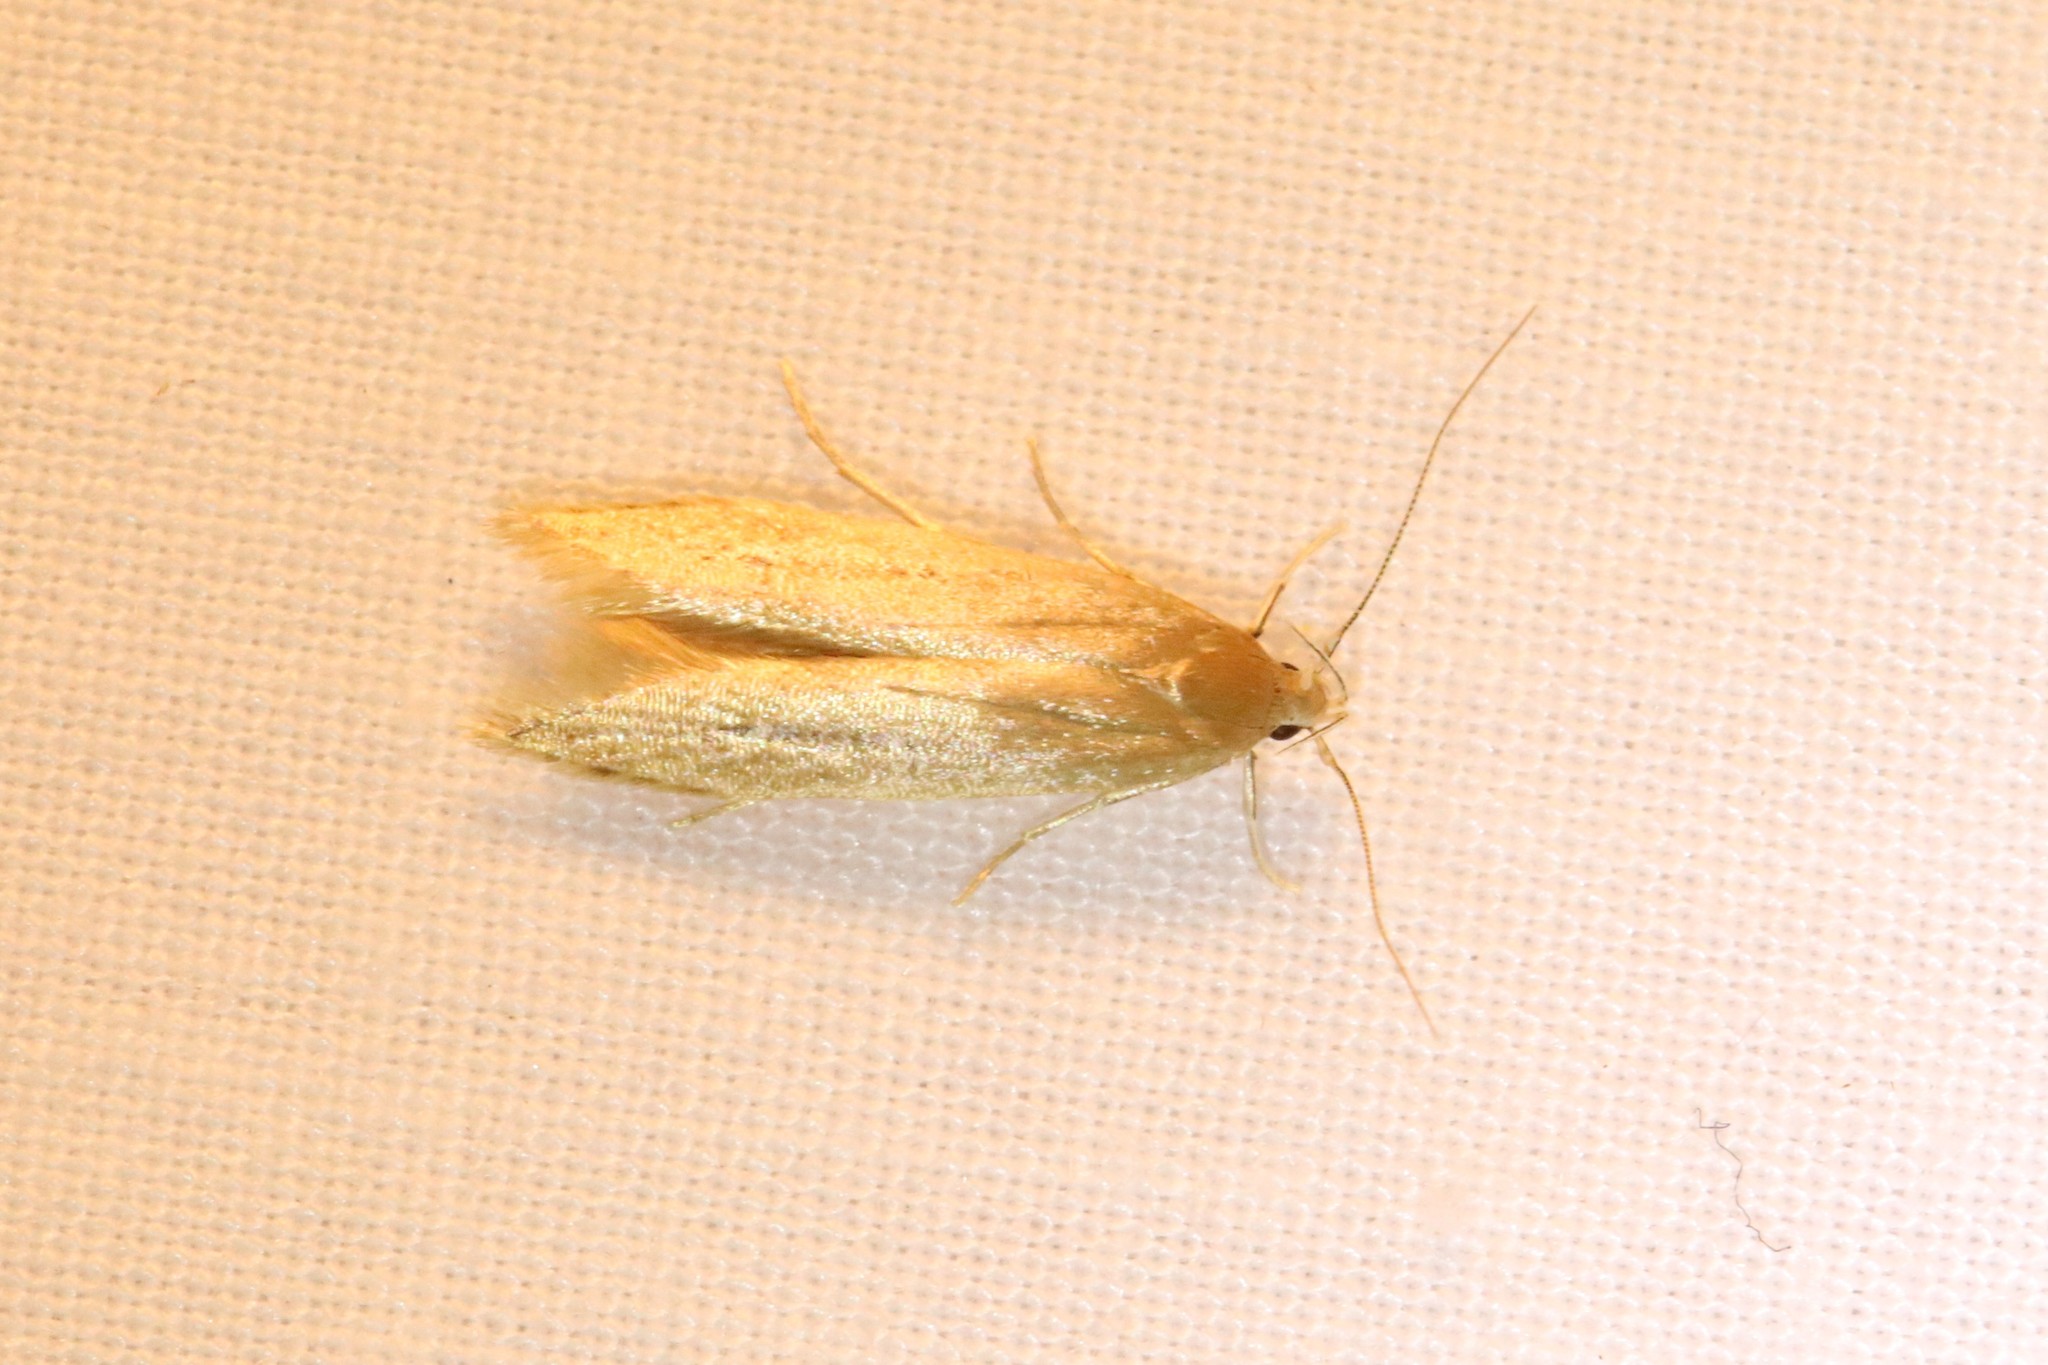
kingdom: Animalia
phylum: Arthropoda
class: Insecta
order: Lepidoptera
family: Cosmopterigidae
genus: Limnaecia
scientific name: Limnaecia phragmitella
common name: Bulrush cosmet
